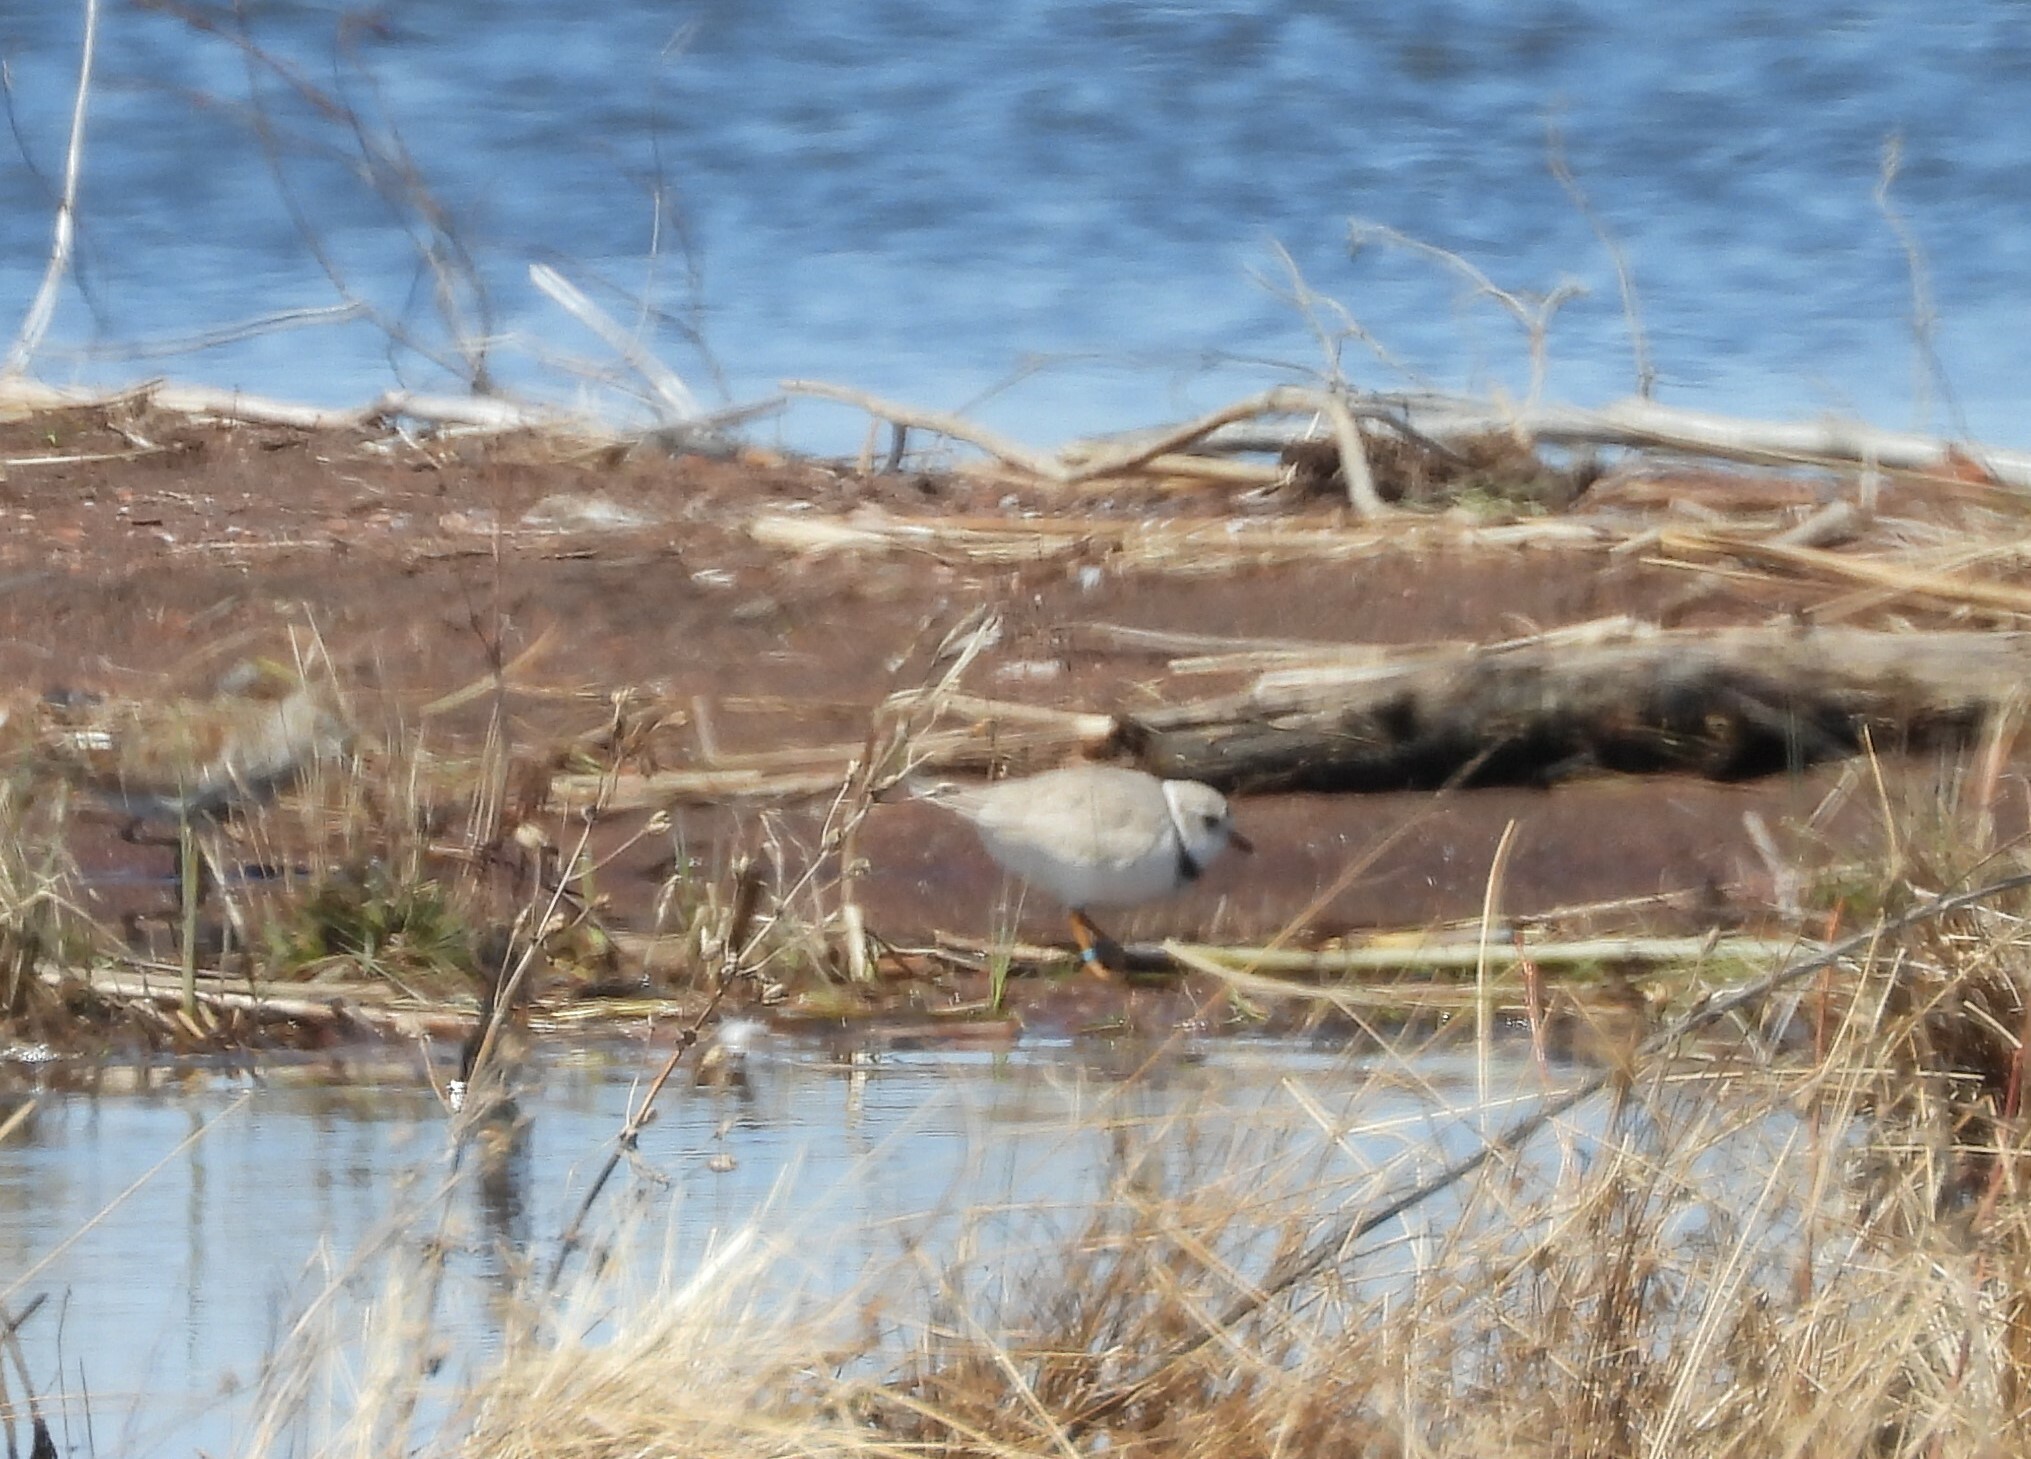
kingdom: Animalia
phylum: Chordata
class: Aves
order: Charadriiformes
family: Charadriidae
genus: Charadrius
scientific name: Charadrius melodus
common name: Piping plover
